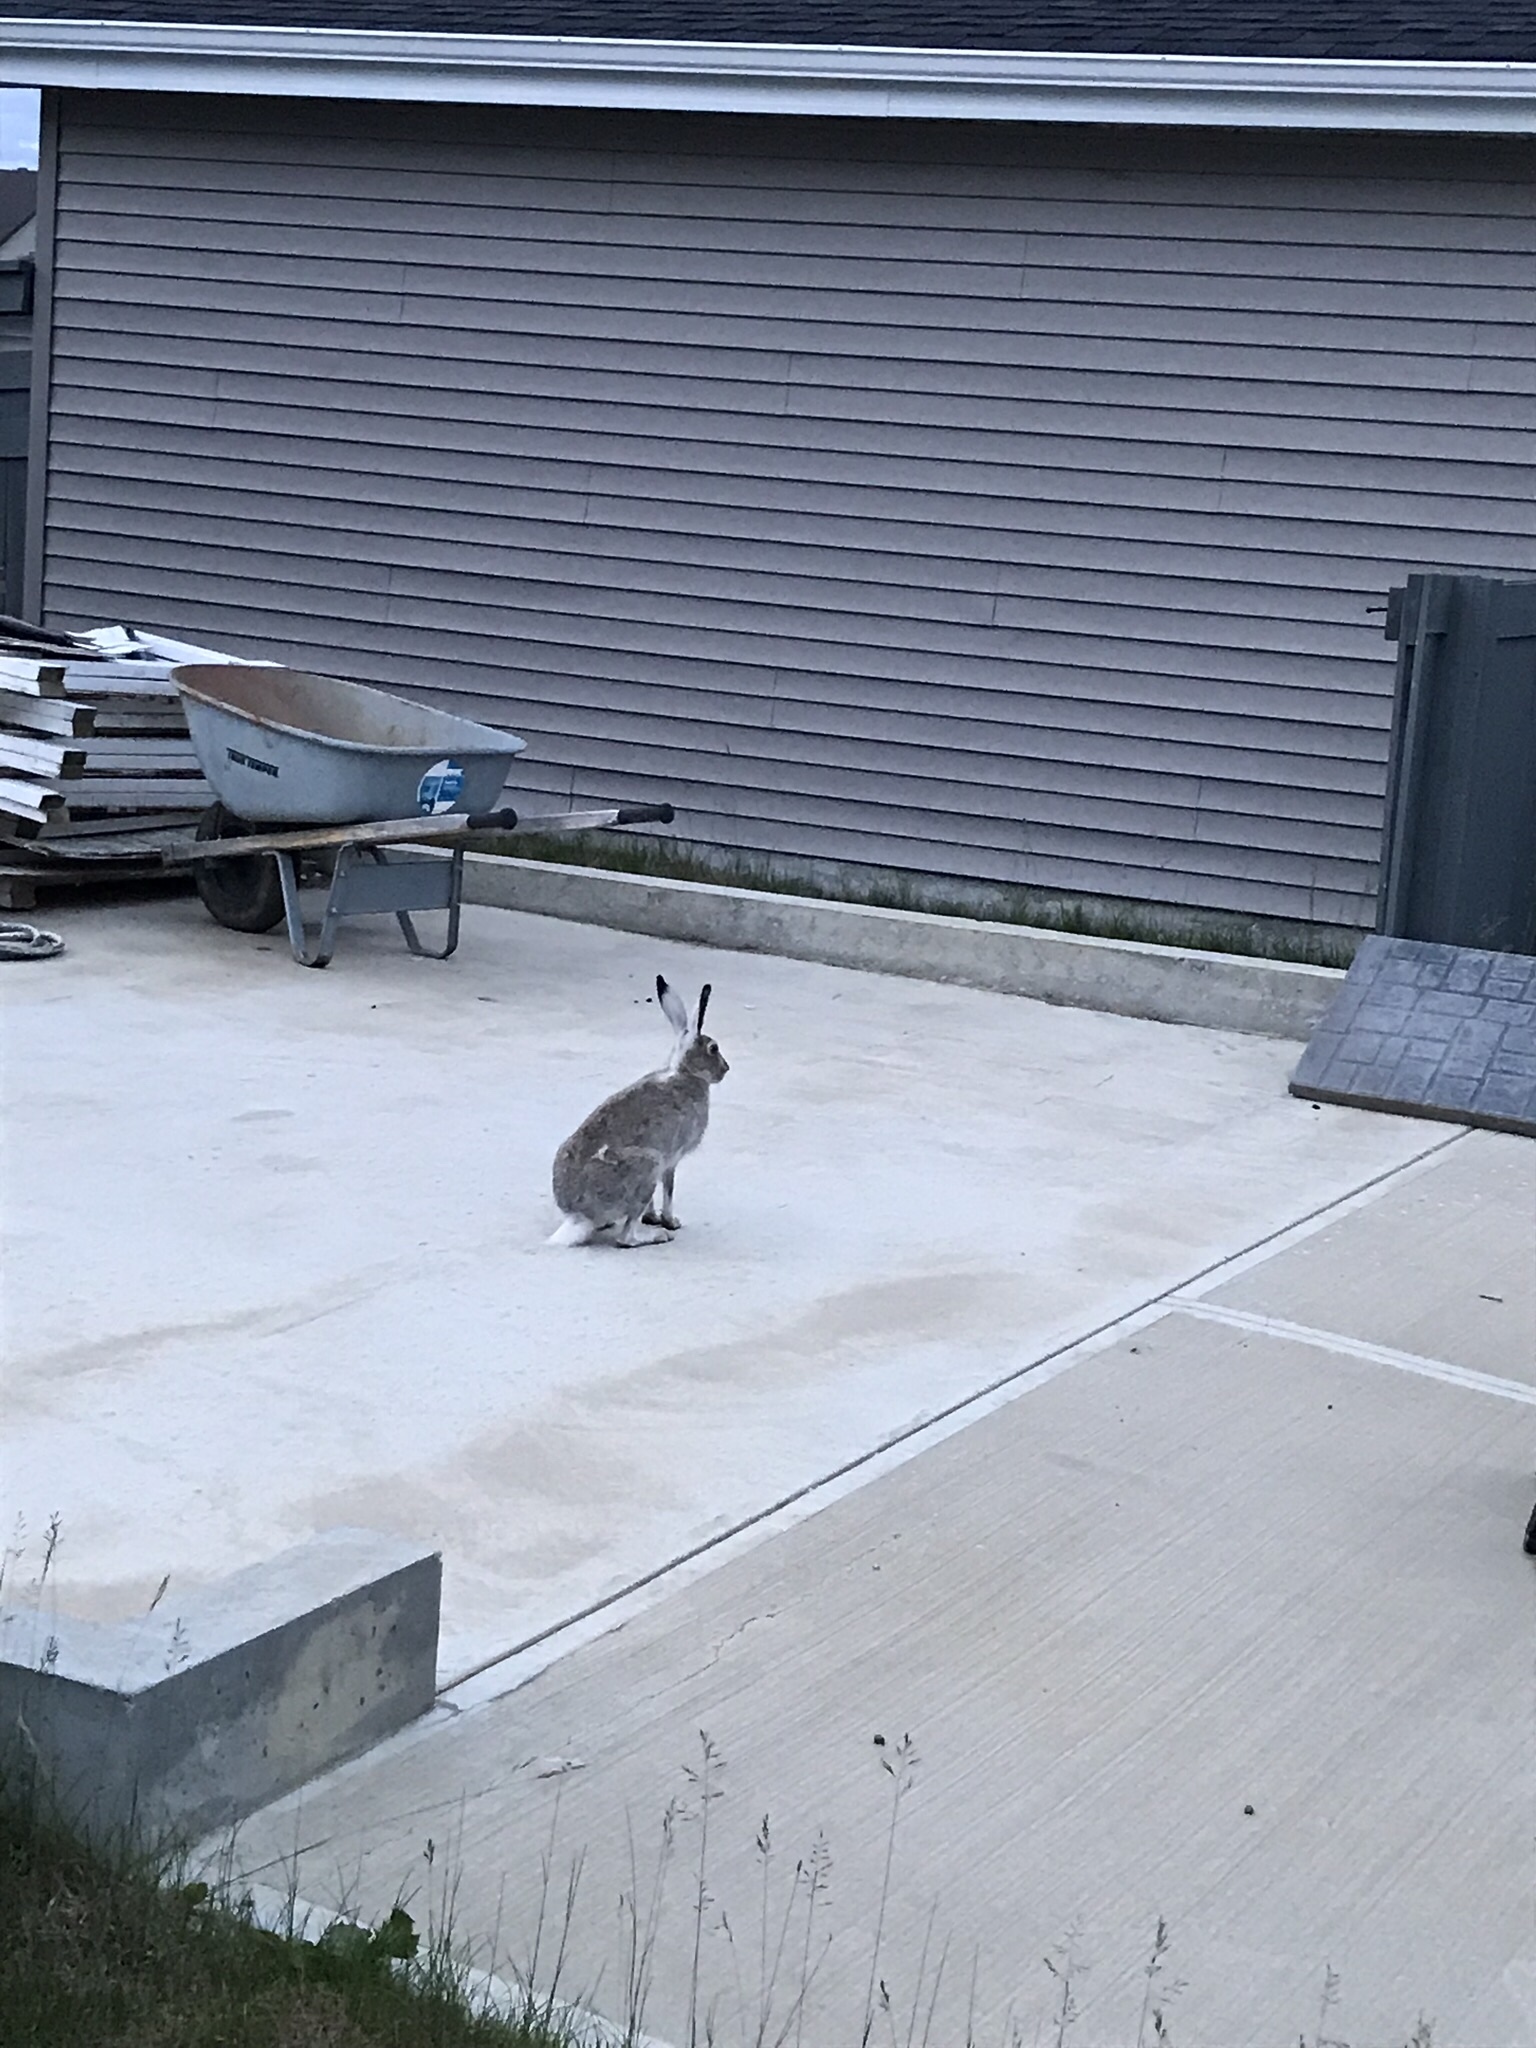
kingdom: Animalia
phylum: Chordata
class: Mammalia
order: Lagomorpha
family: Leporidae
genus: Lepus
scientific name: Lepus townsendii
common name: White-tailed jackrabbit
